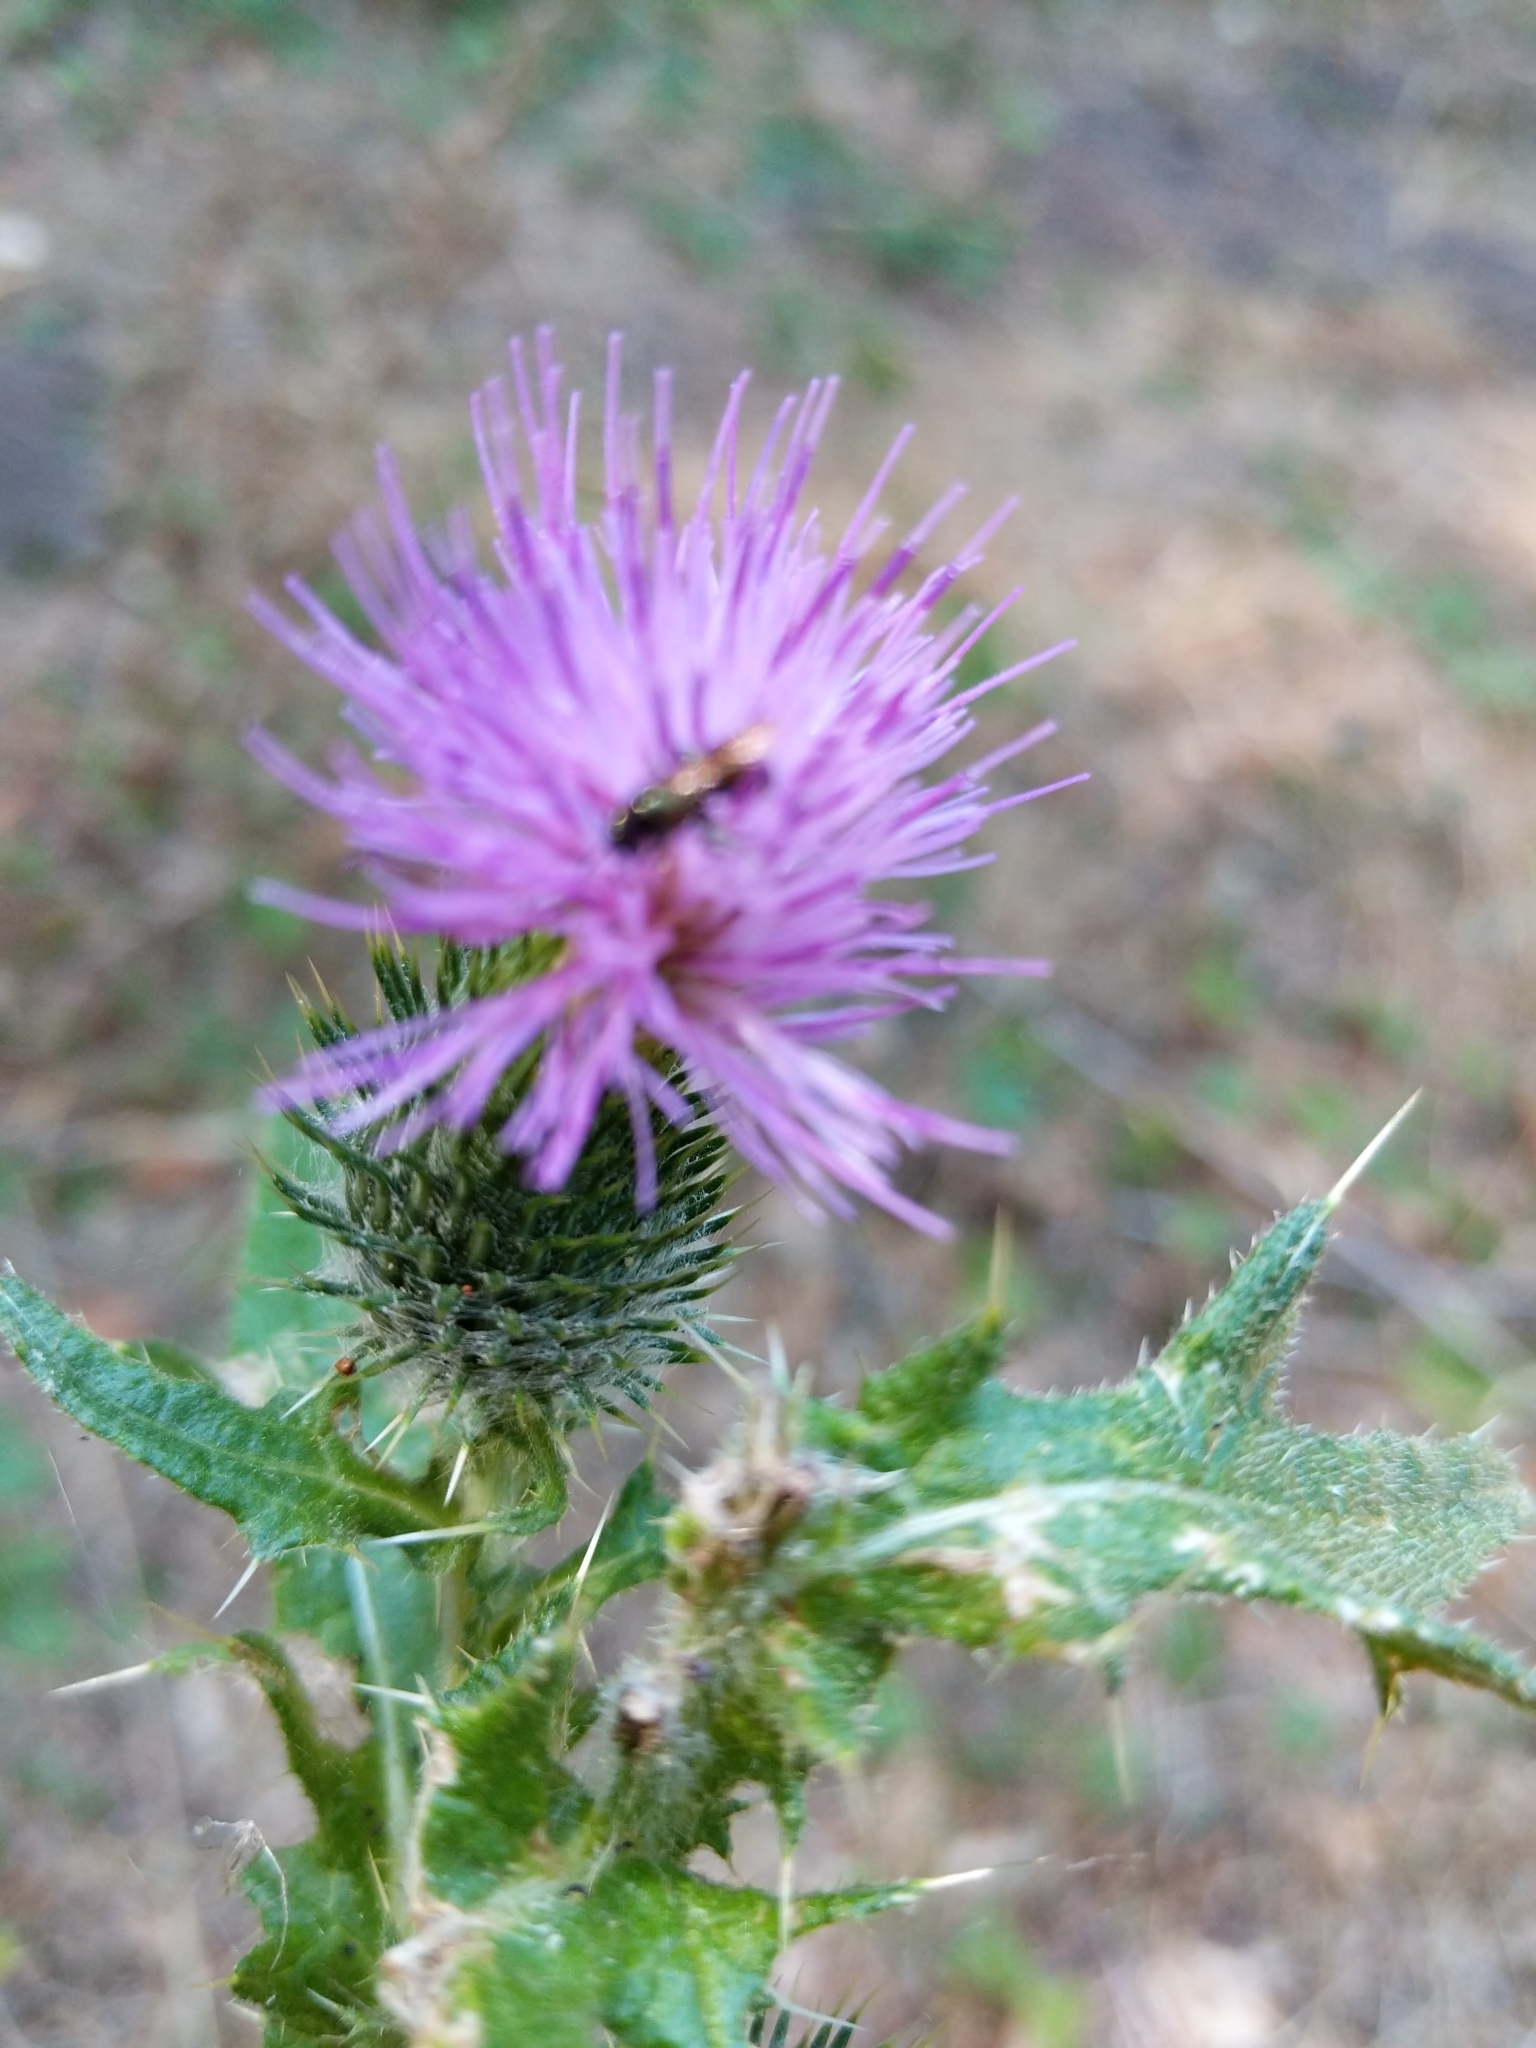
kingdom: Plantae
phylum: Tracheophyta
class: Magnoliopsida
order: Asterales
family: Asteraceae
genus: Cirsium
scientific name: Cirsium vulgare
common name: Bull thistle
